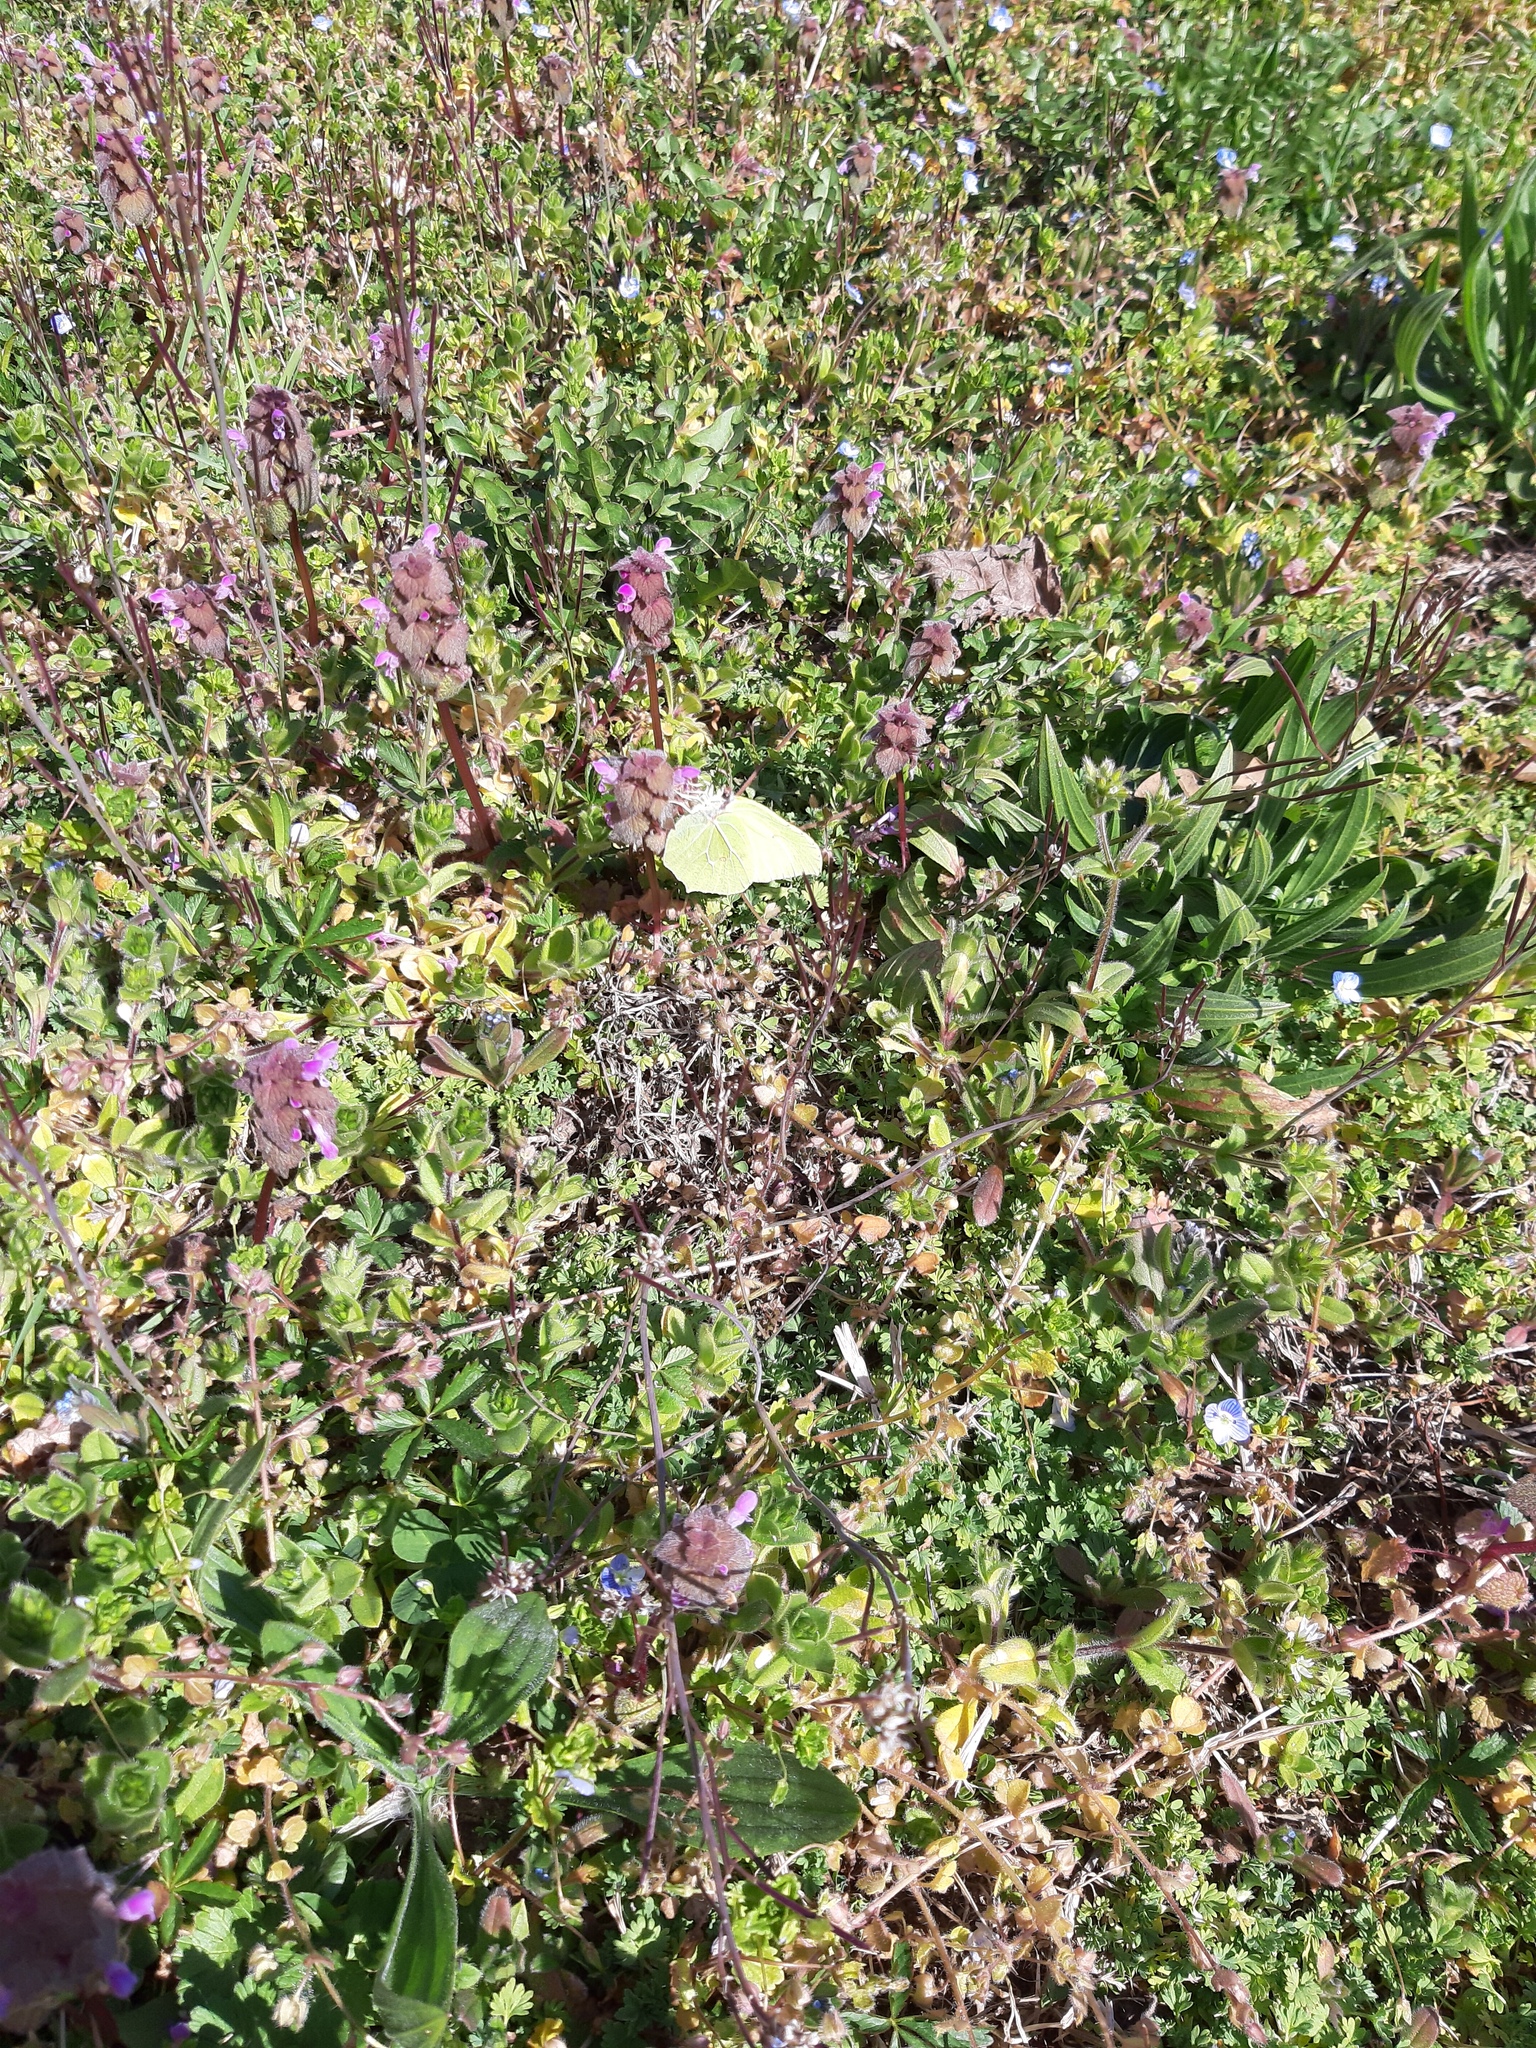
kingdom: Animalia
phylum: Arthropoda
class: Insecta
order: Lepidoptera
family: Pieridae
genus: Gonepteryx
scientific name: Gonepteryx rhamni
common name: Brimstone
